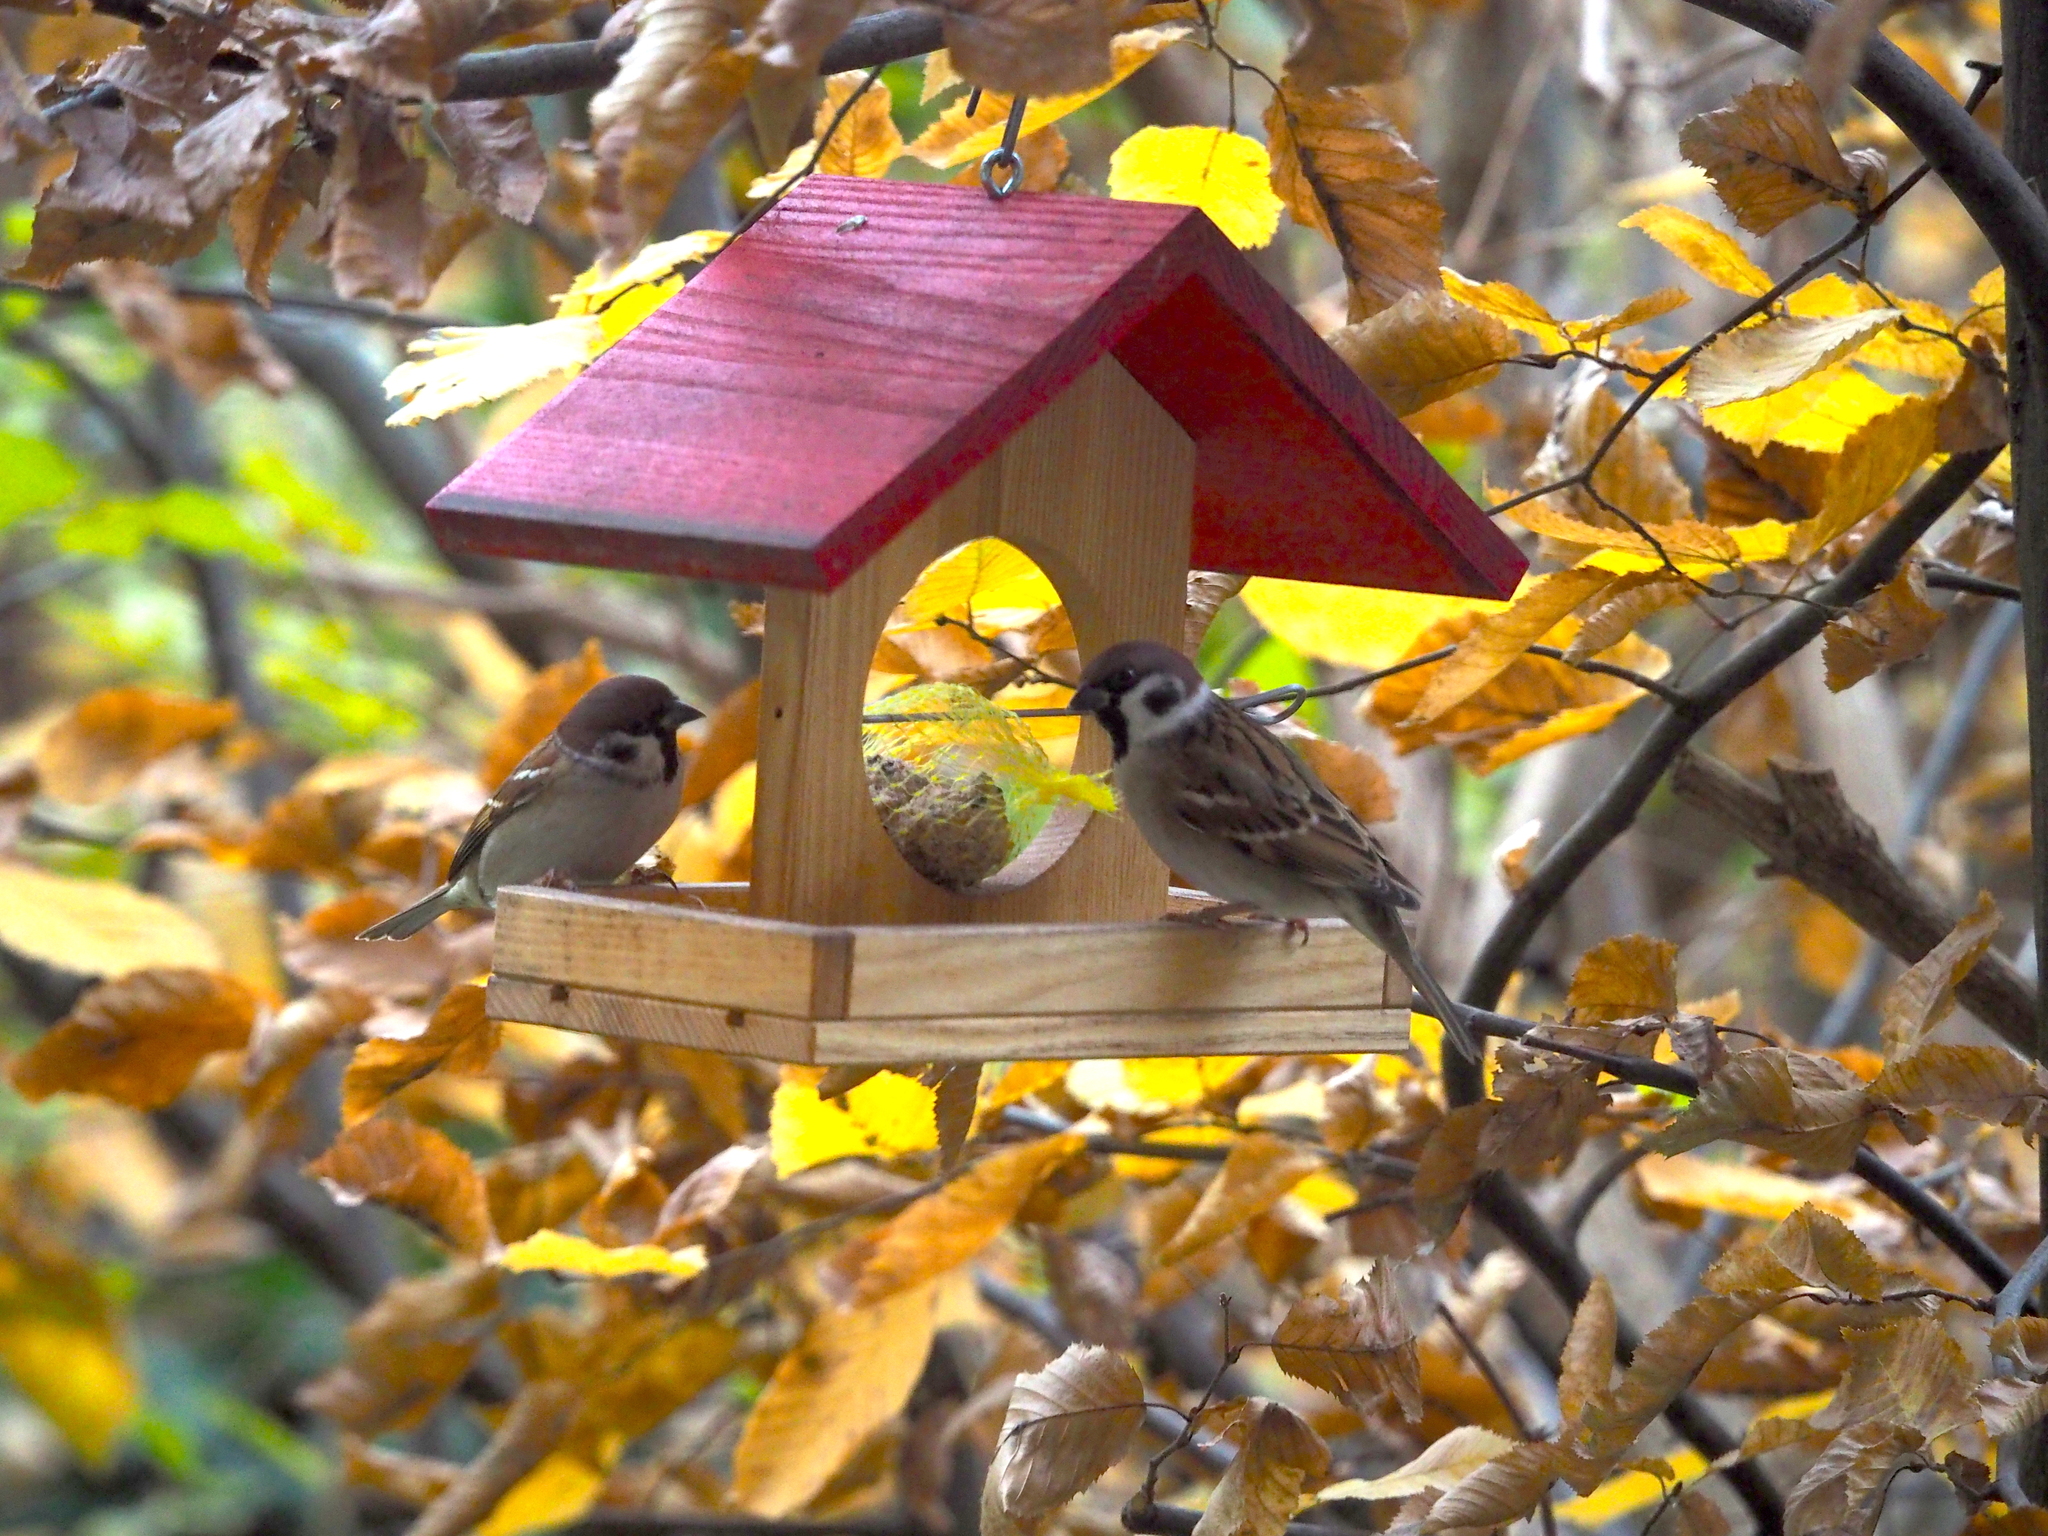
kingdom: Animalia
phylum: Chordata
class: Aves
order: Passeriformes
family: Passeridae
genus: Passer
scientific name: Passer montanus
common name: Eurasian tree sparrow
